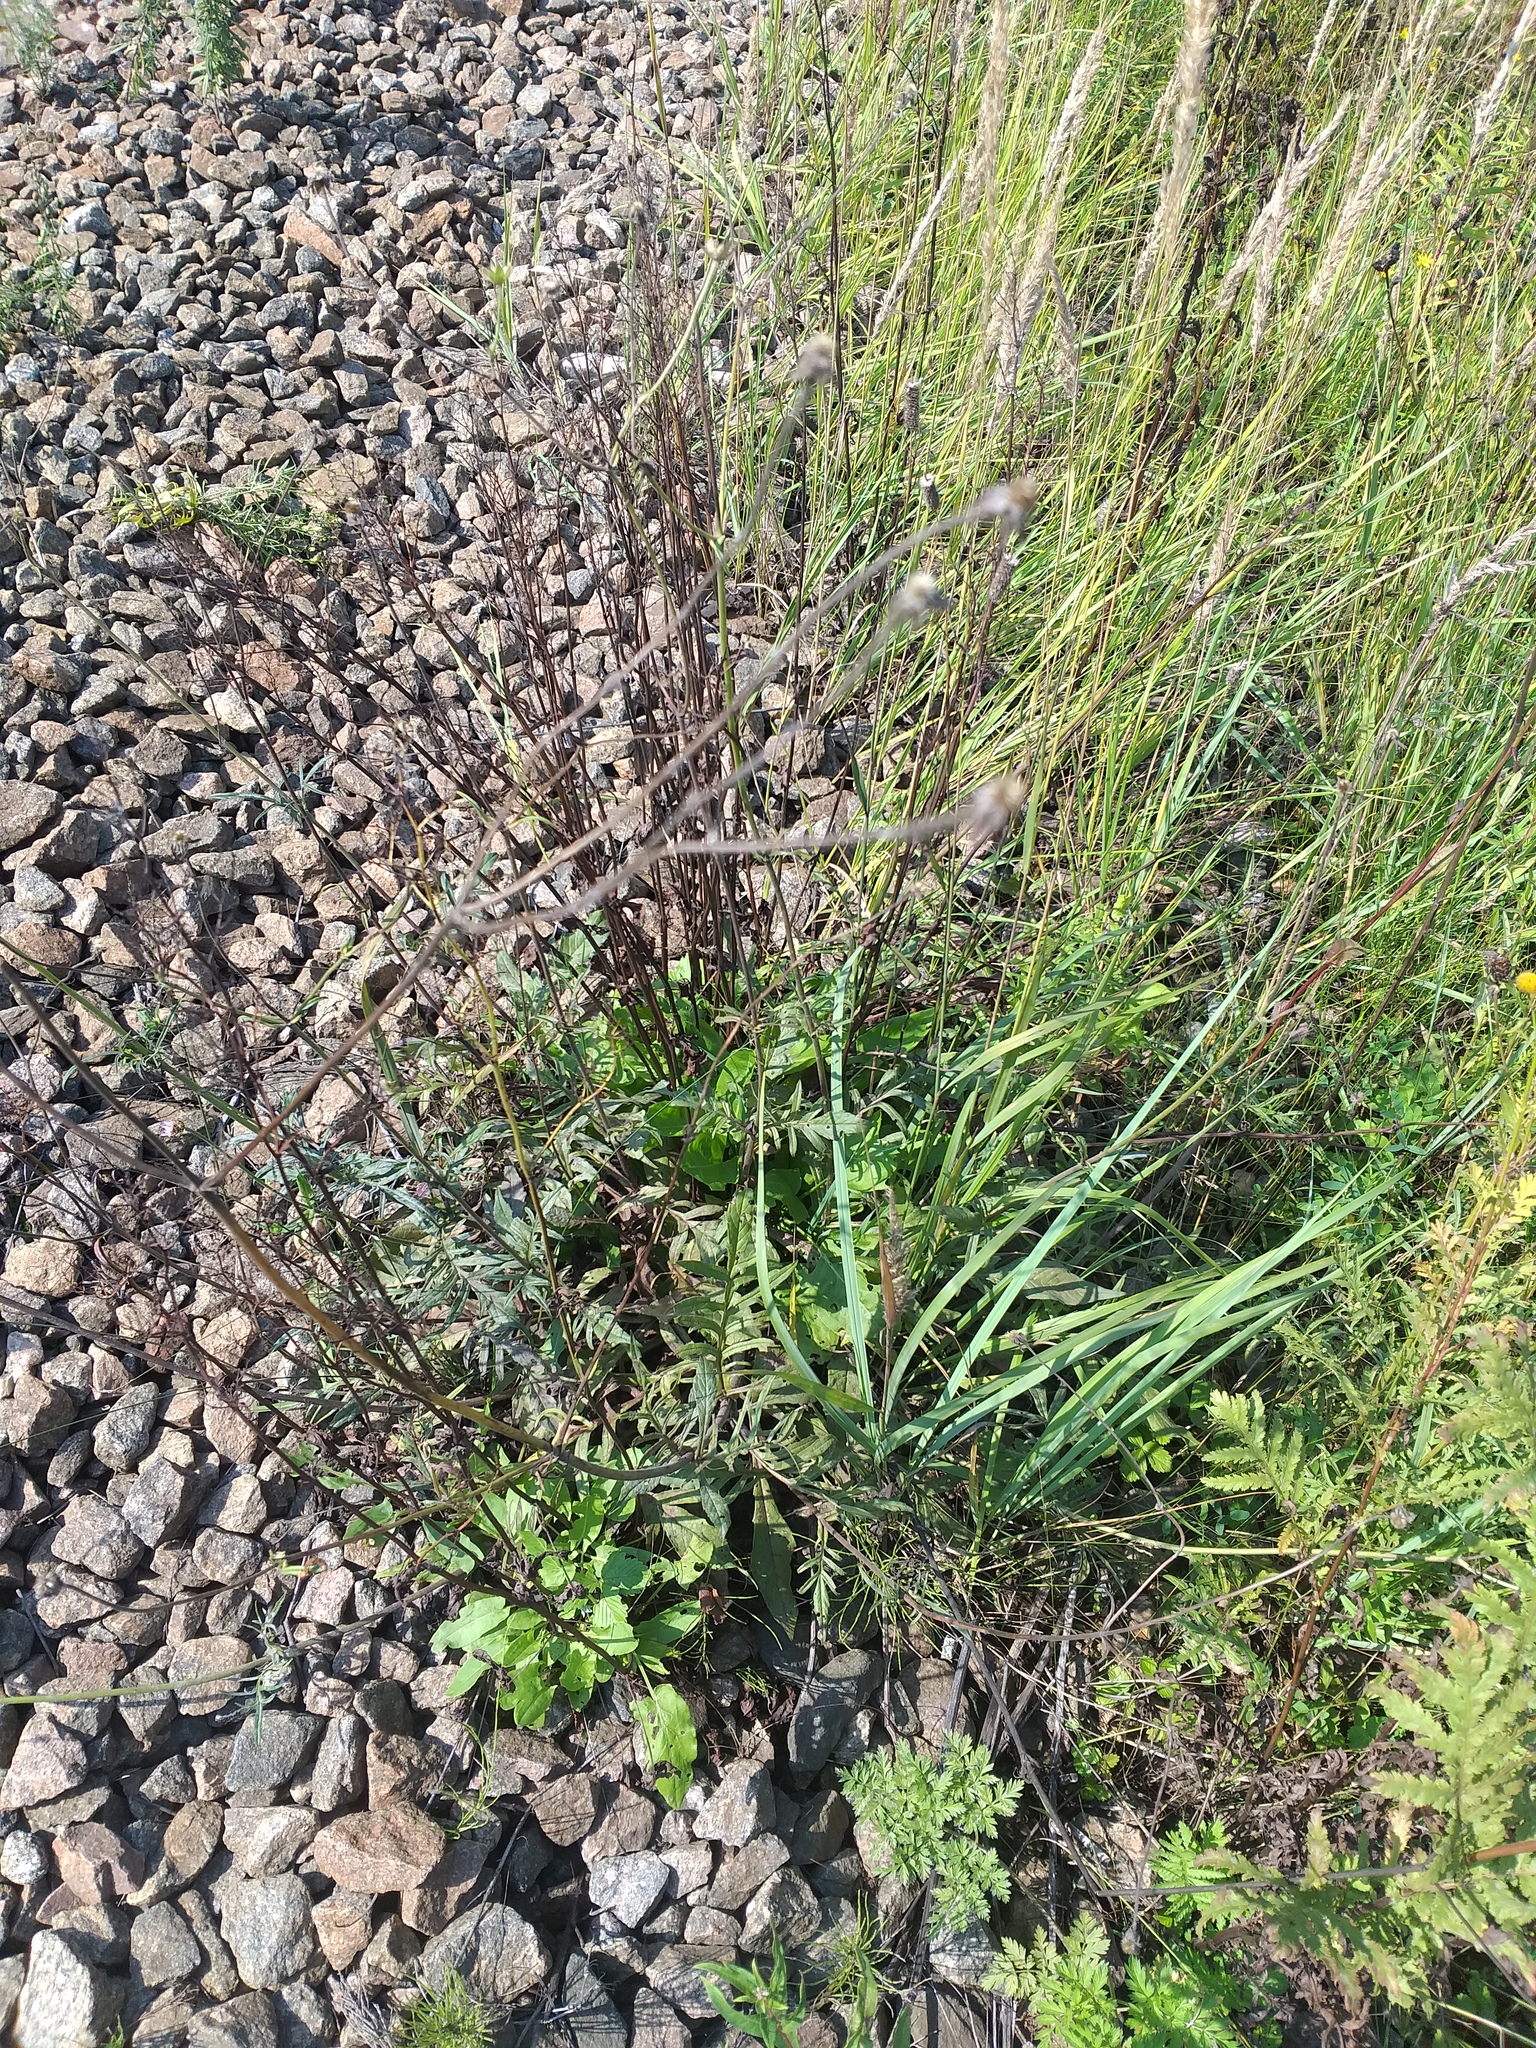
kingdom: Plantae
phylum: Tracheophyta
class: Magnoliopsida
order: Dipsacales
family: Caprifoliaceae
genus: Knautia
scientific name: Knautia arvensis
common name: Field scabiosa
